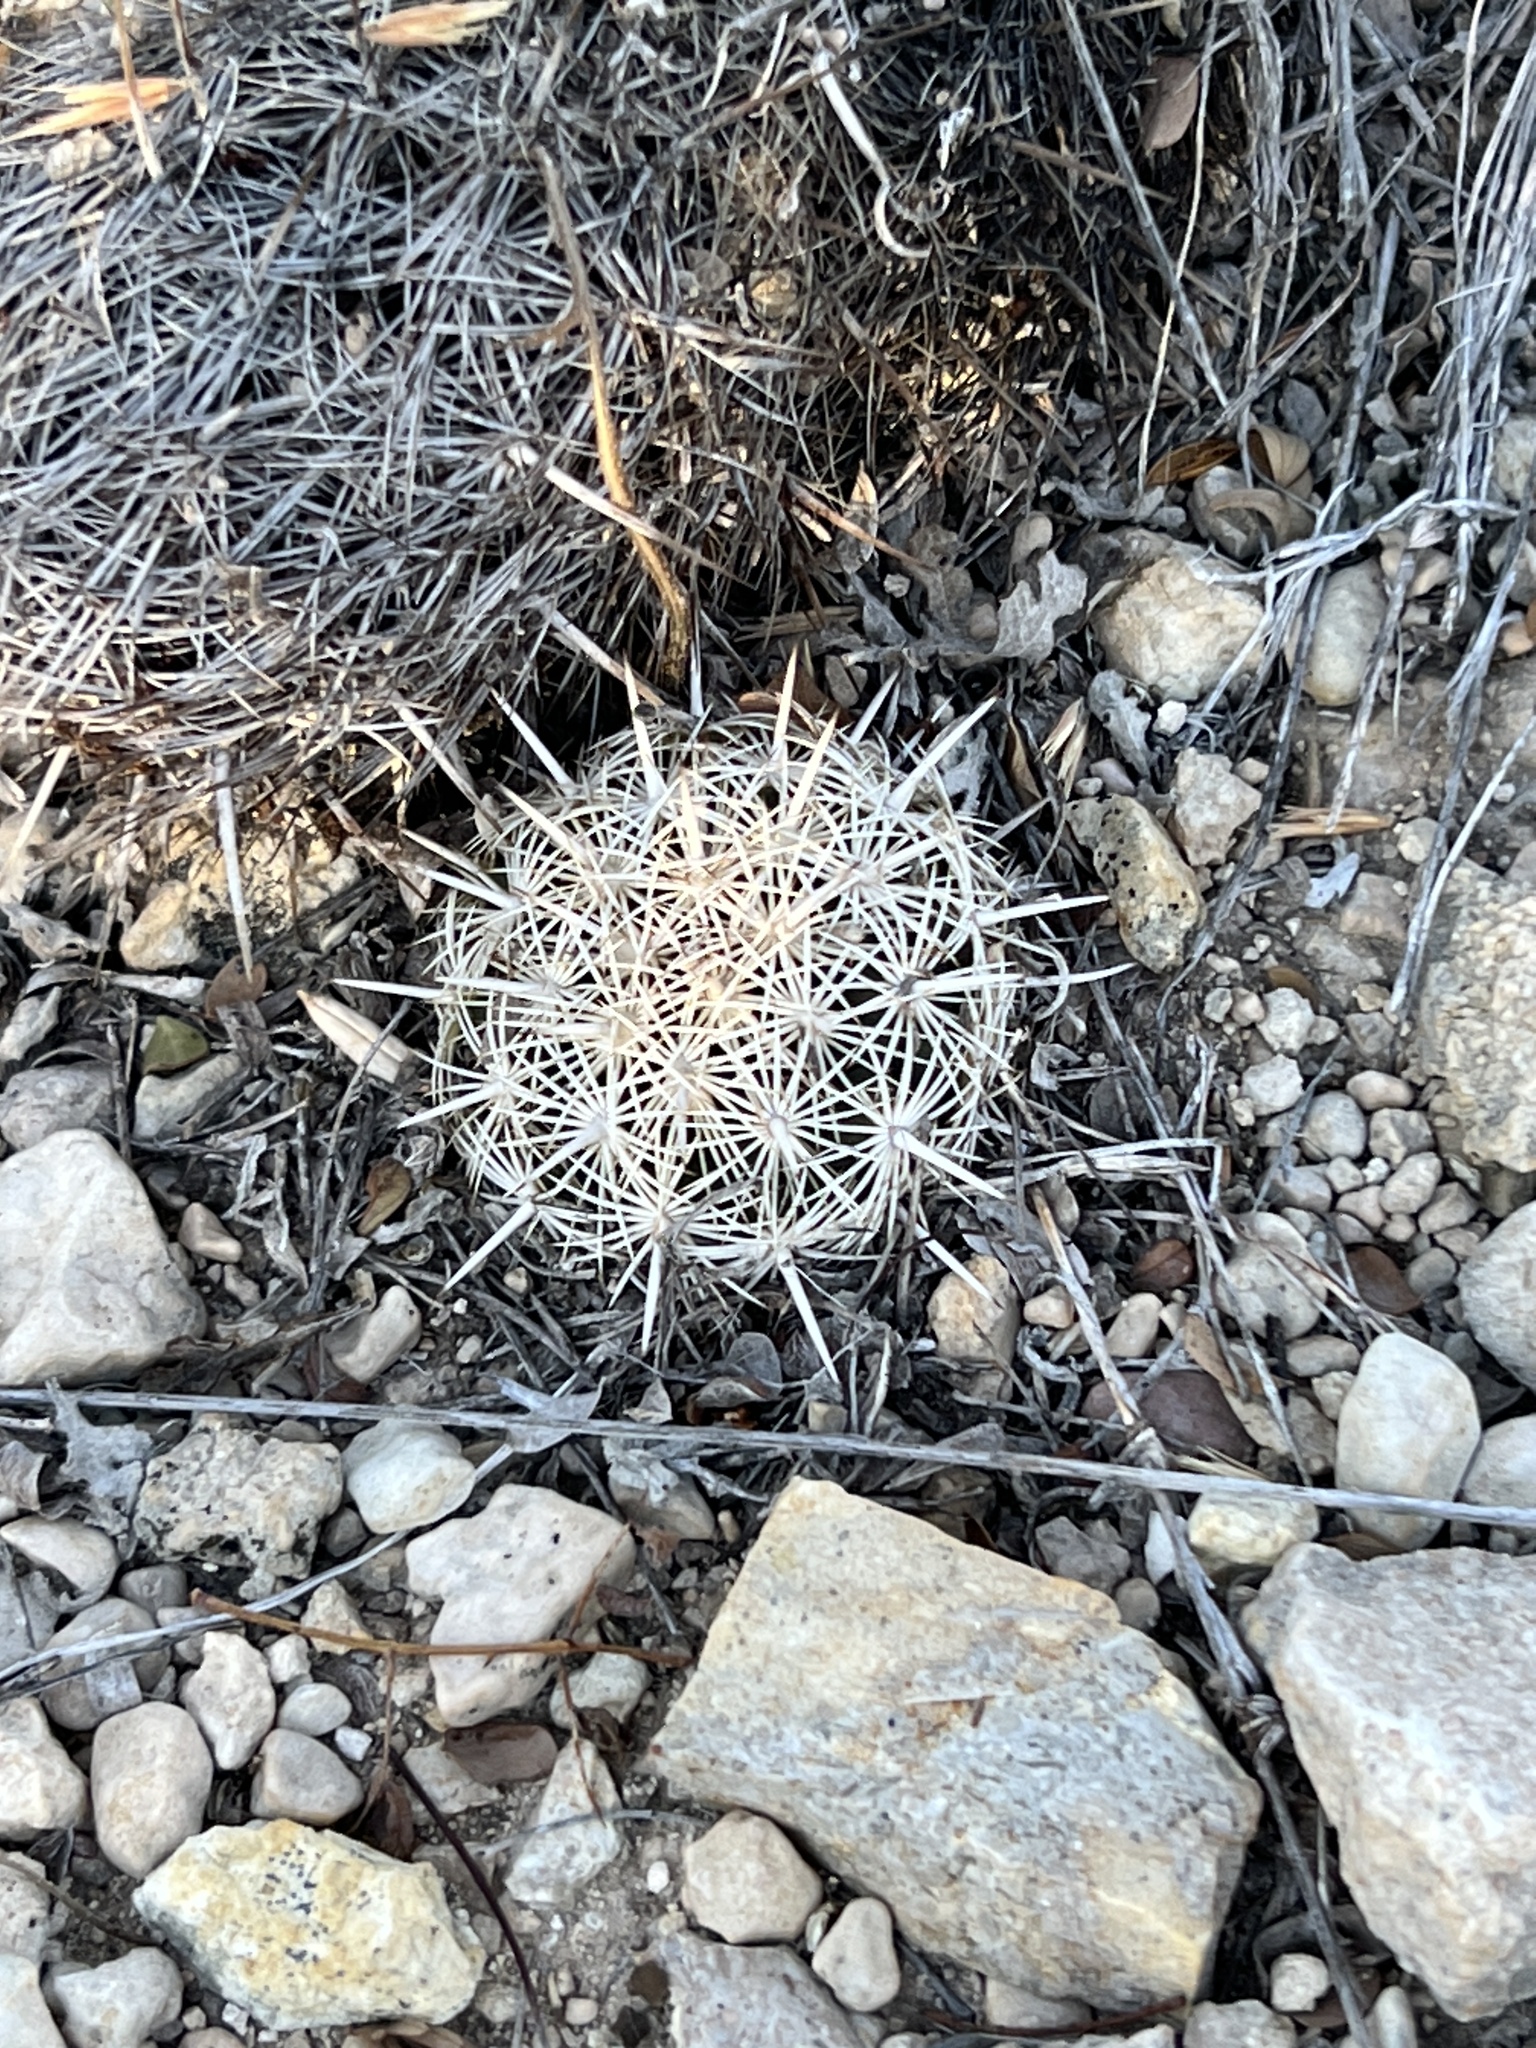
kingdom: Plantae
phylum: Tracheophyta
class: Magnoliopsida
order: Caryophyllales
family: Cactaceae
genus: Coryphantha
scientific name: Coryphantha echinus
